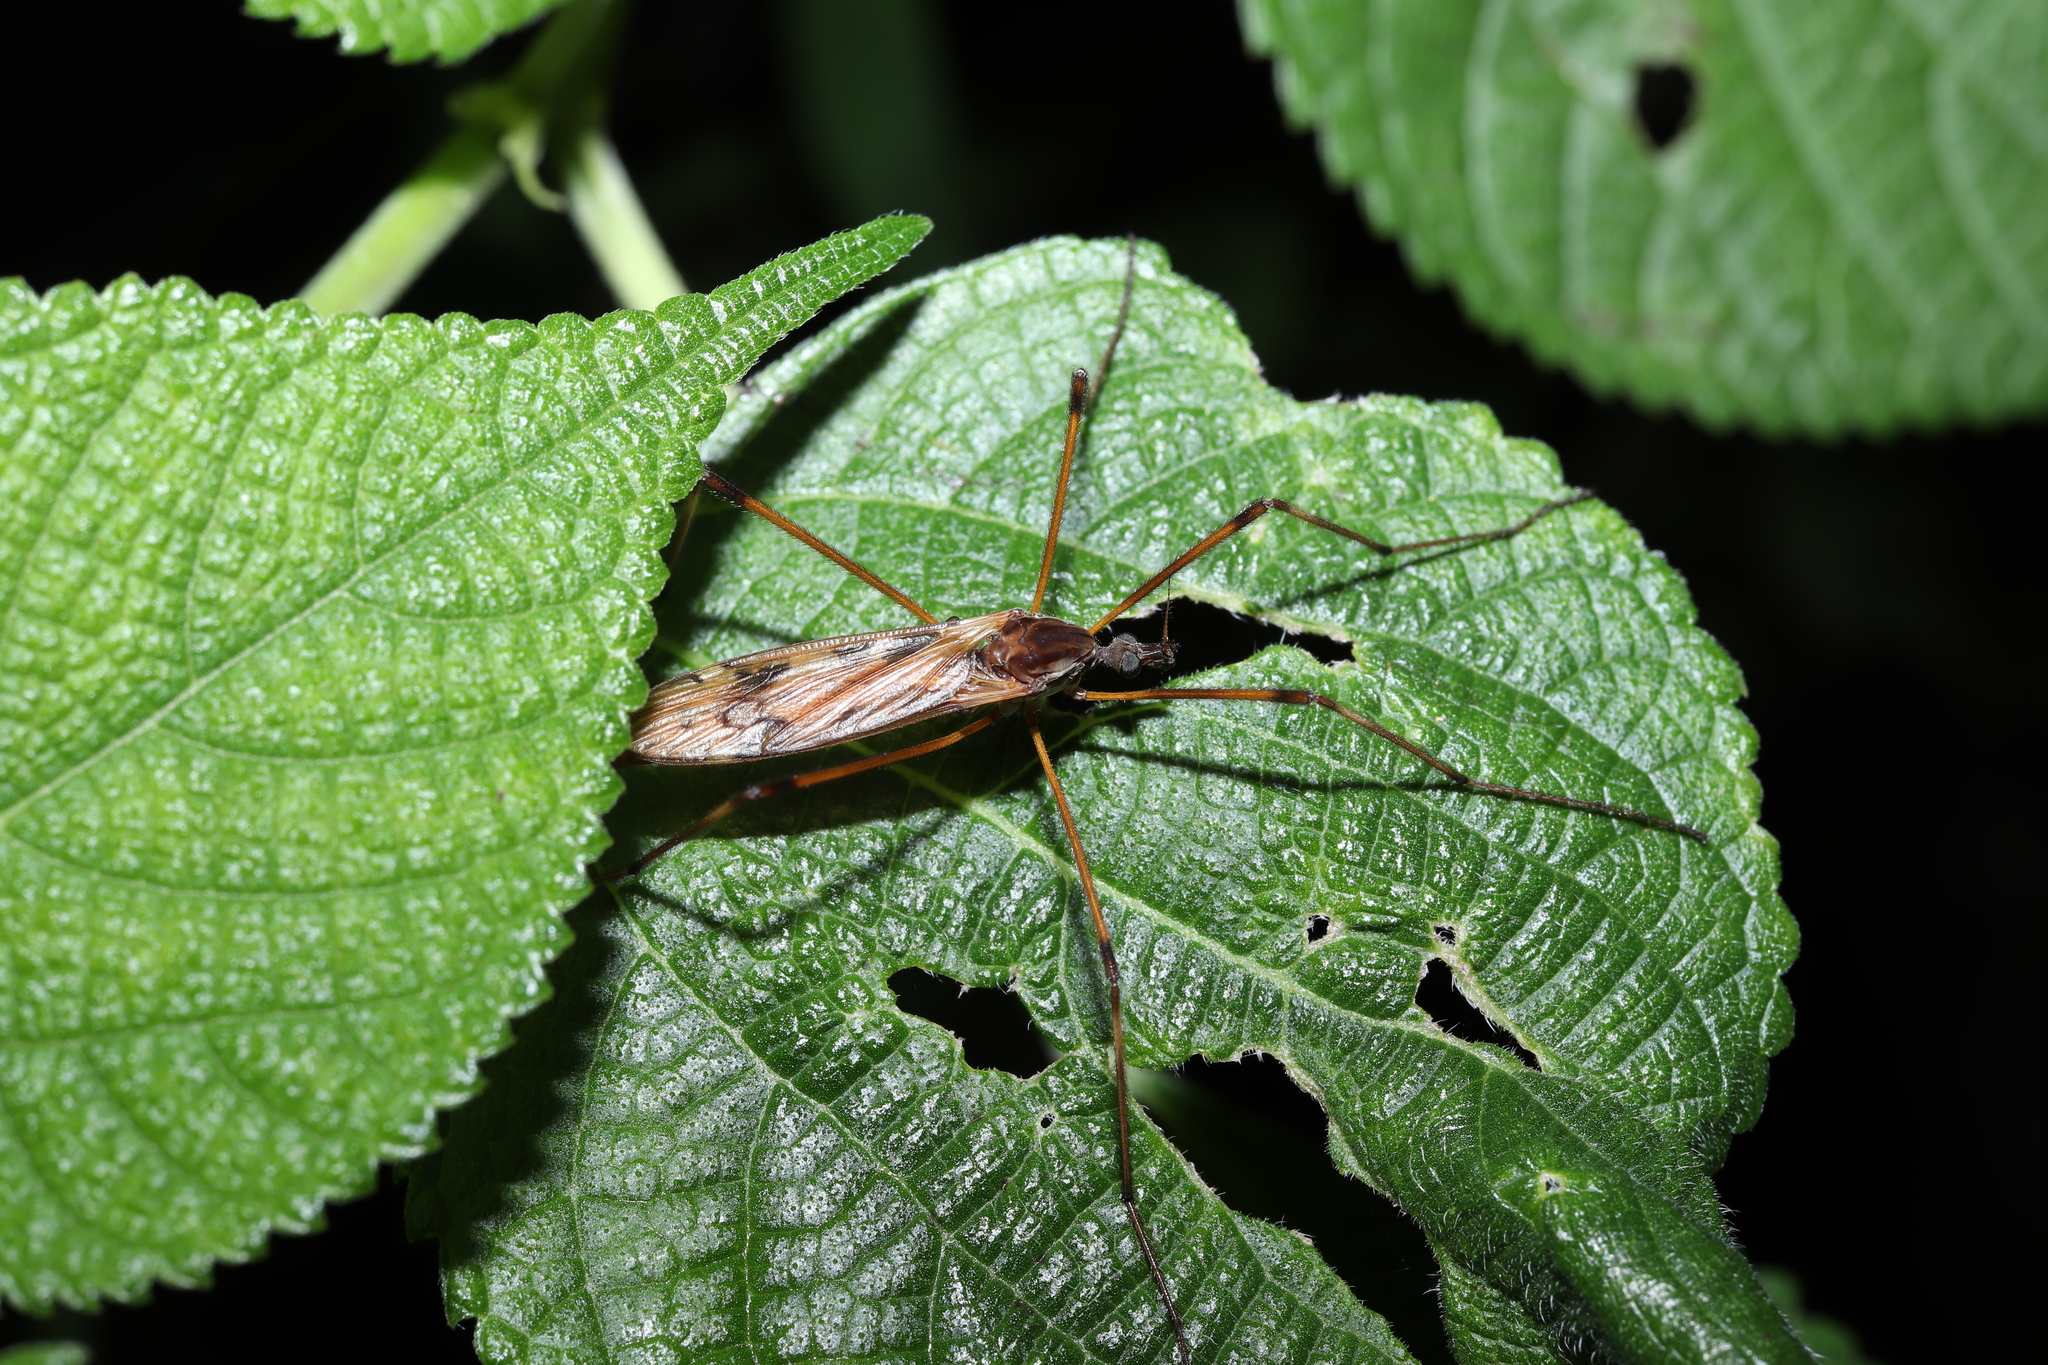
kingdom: Animalia
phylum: Arthropoda
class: Insecta
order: Diptera
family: Limoniidae
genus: Eutonia
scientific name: Eutonia satsuma
